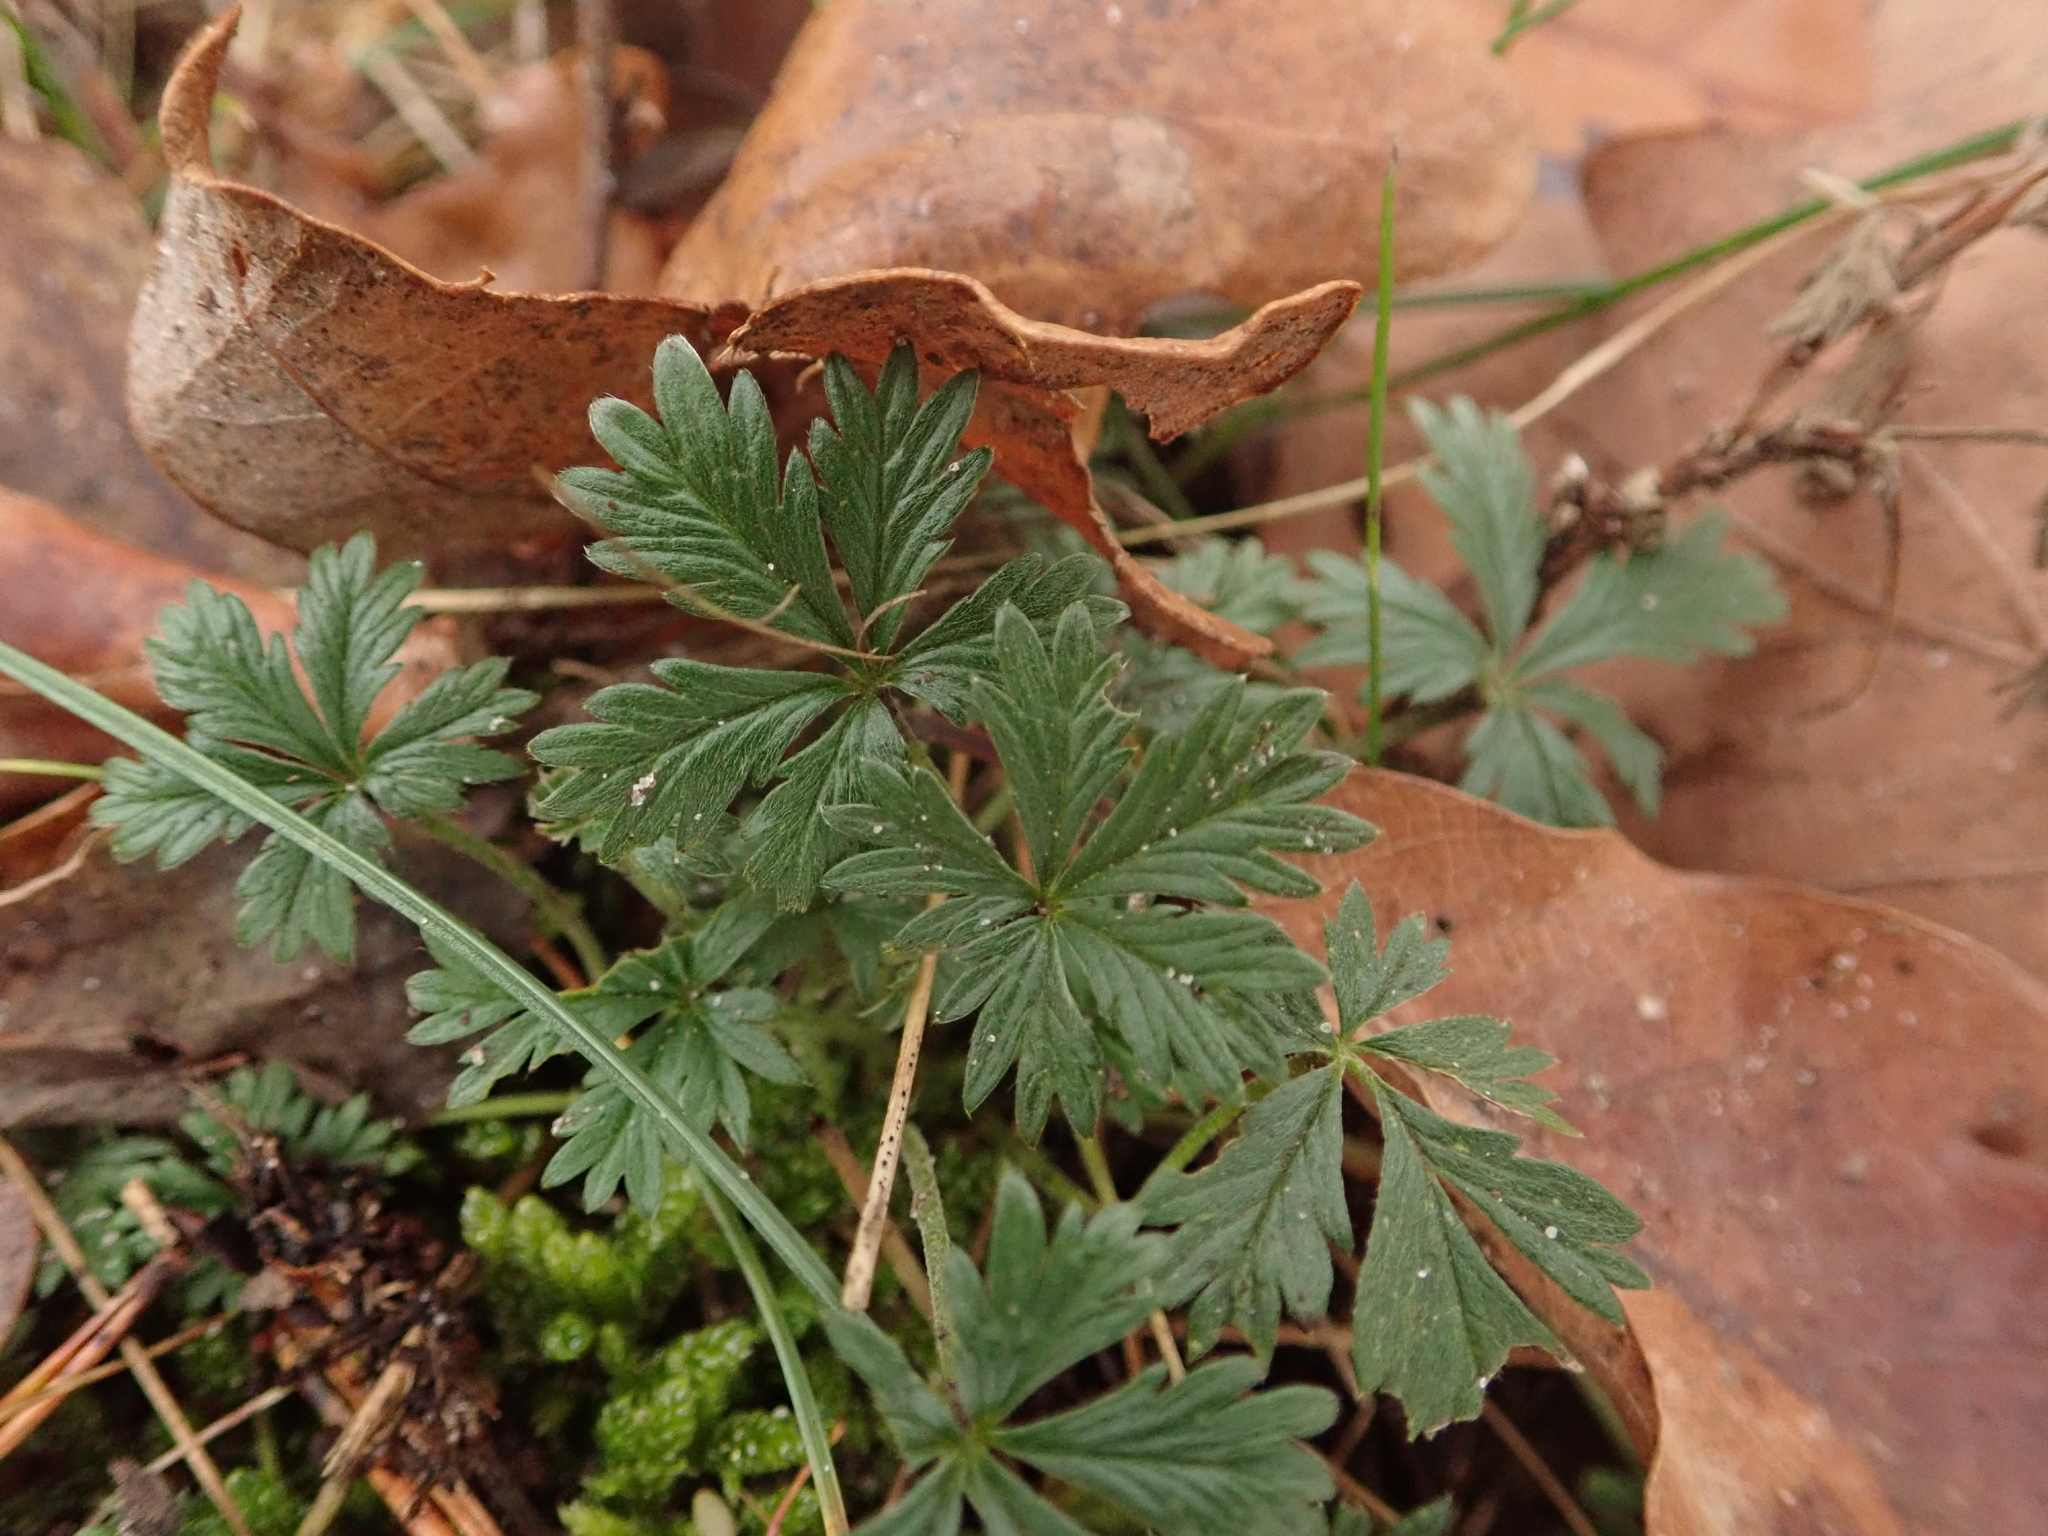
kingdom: Plantae
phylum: Tracheophyta
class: Magnoliopsida
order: Rosales
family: Rosaceae
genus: Potentilla
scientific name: Potentilla argentea
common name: Hoary cinquefoil
